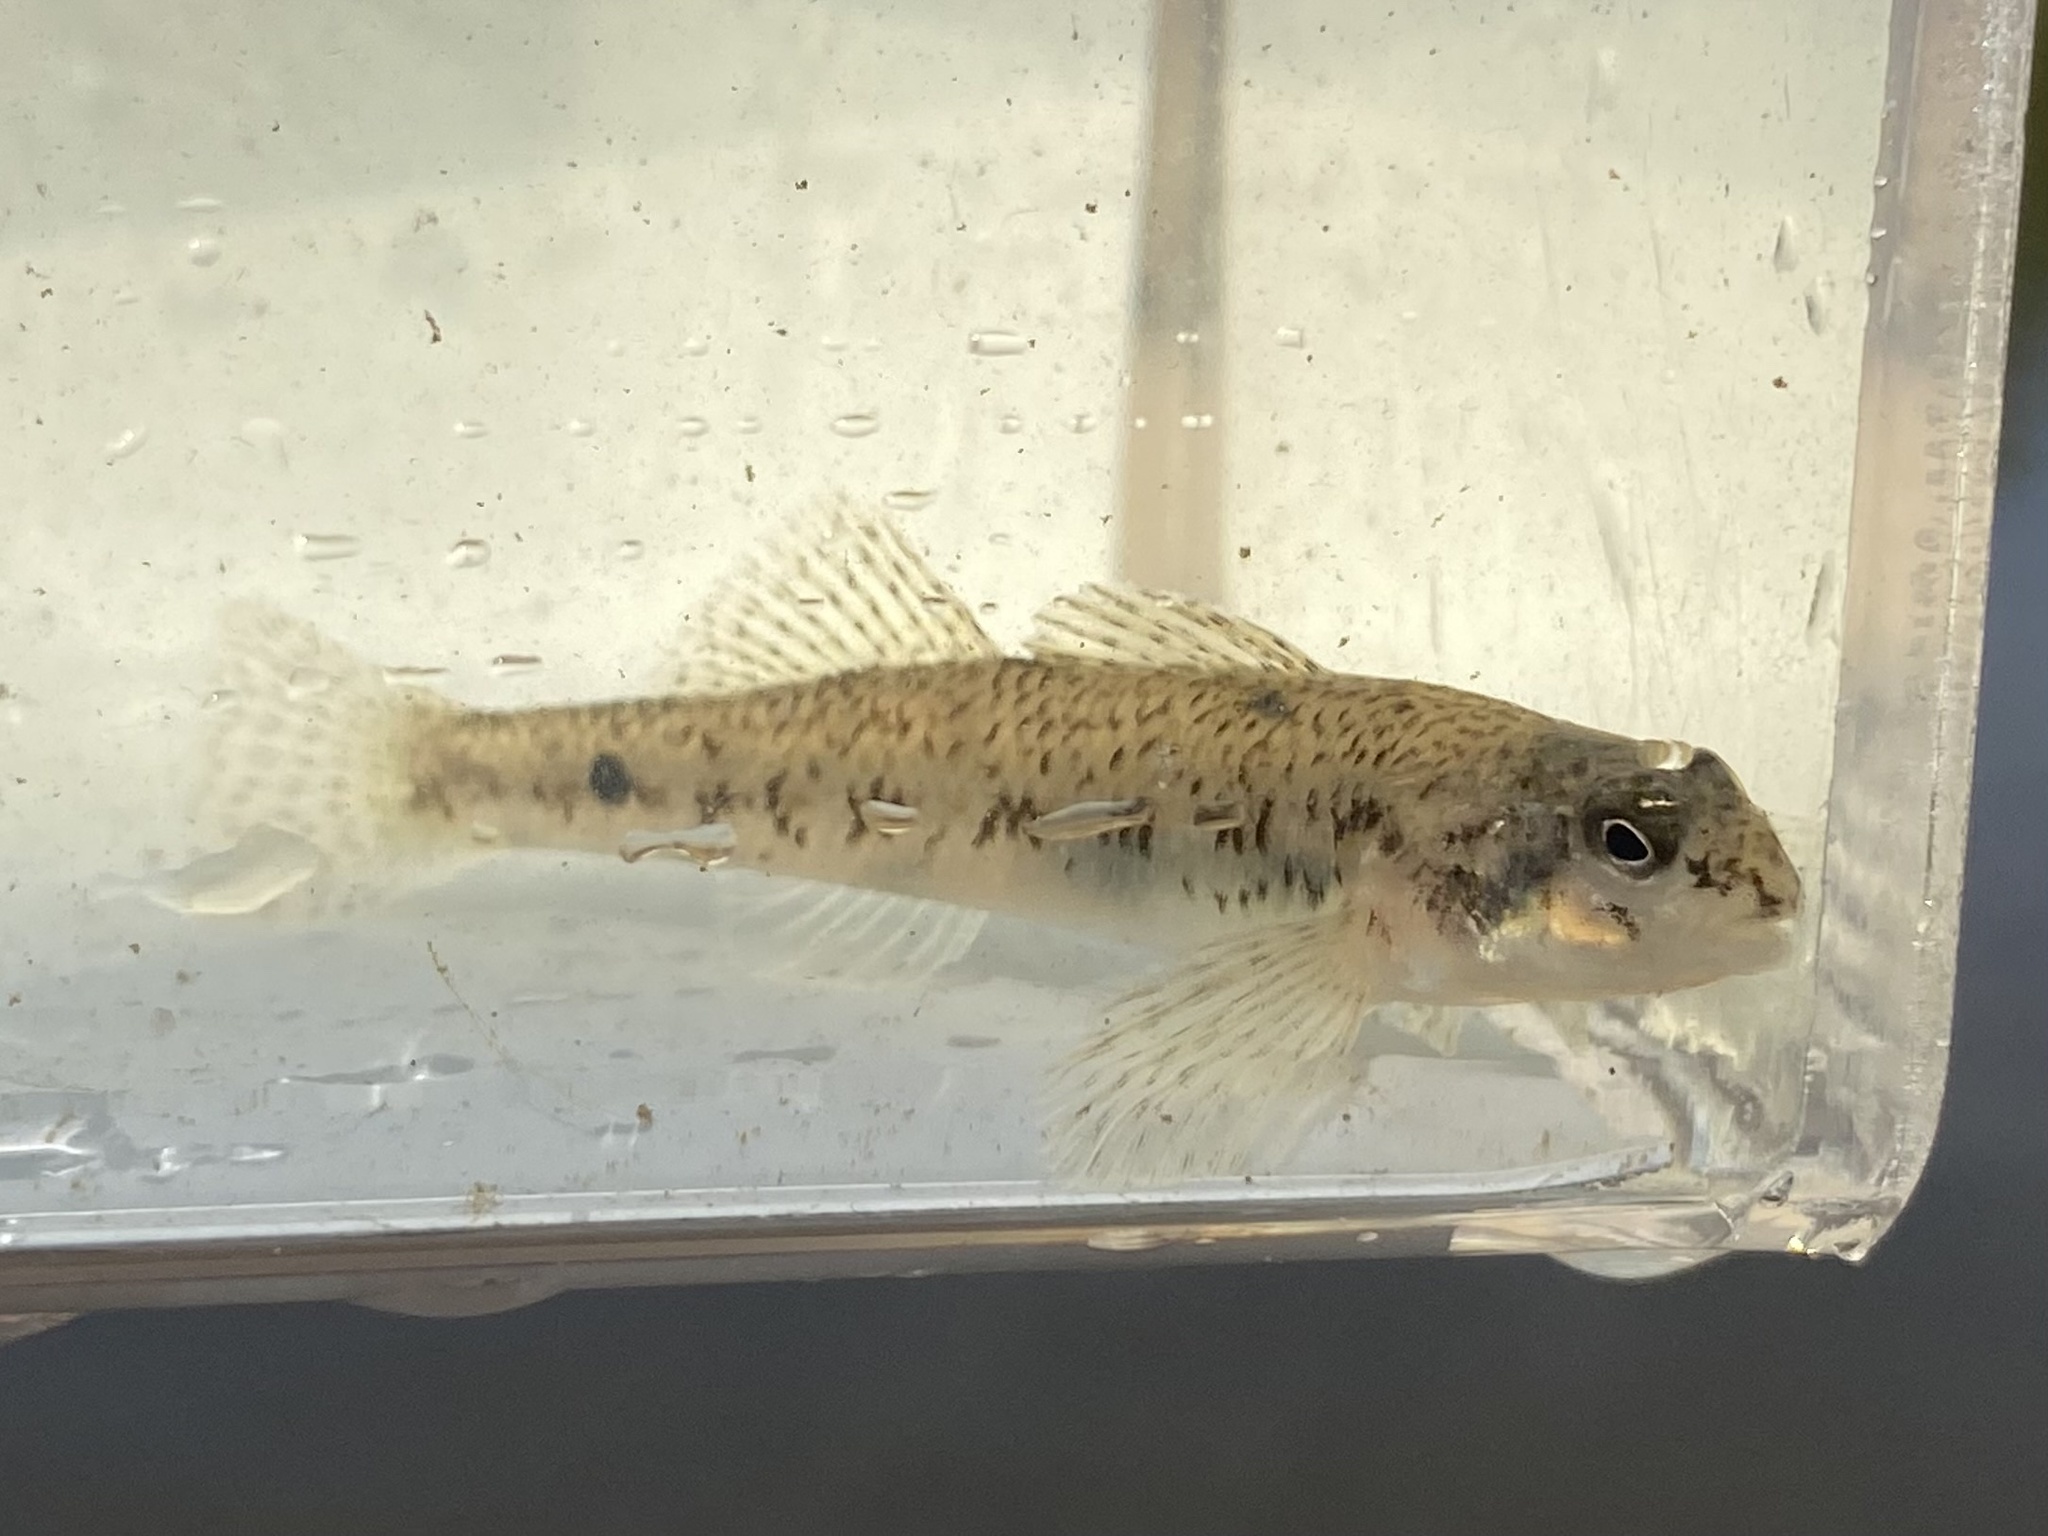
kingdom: Animalia
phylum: Chordata
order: Perciformes
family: Percidae
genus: Etheostoma
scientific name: Etheostoma nigrum
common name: Johnny darter
